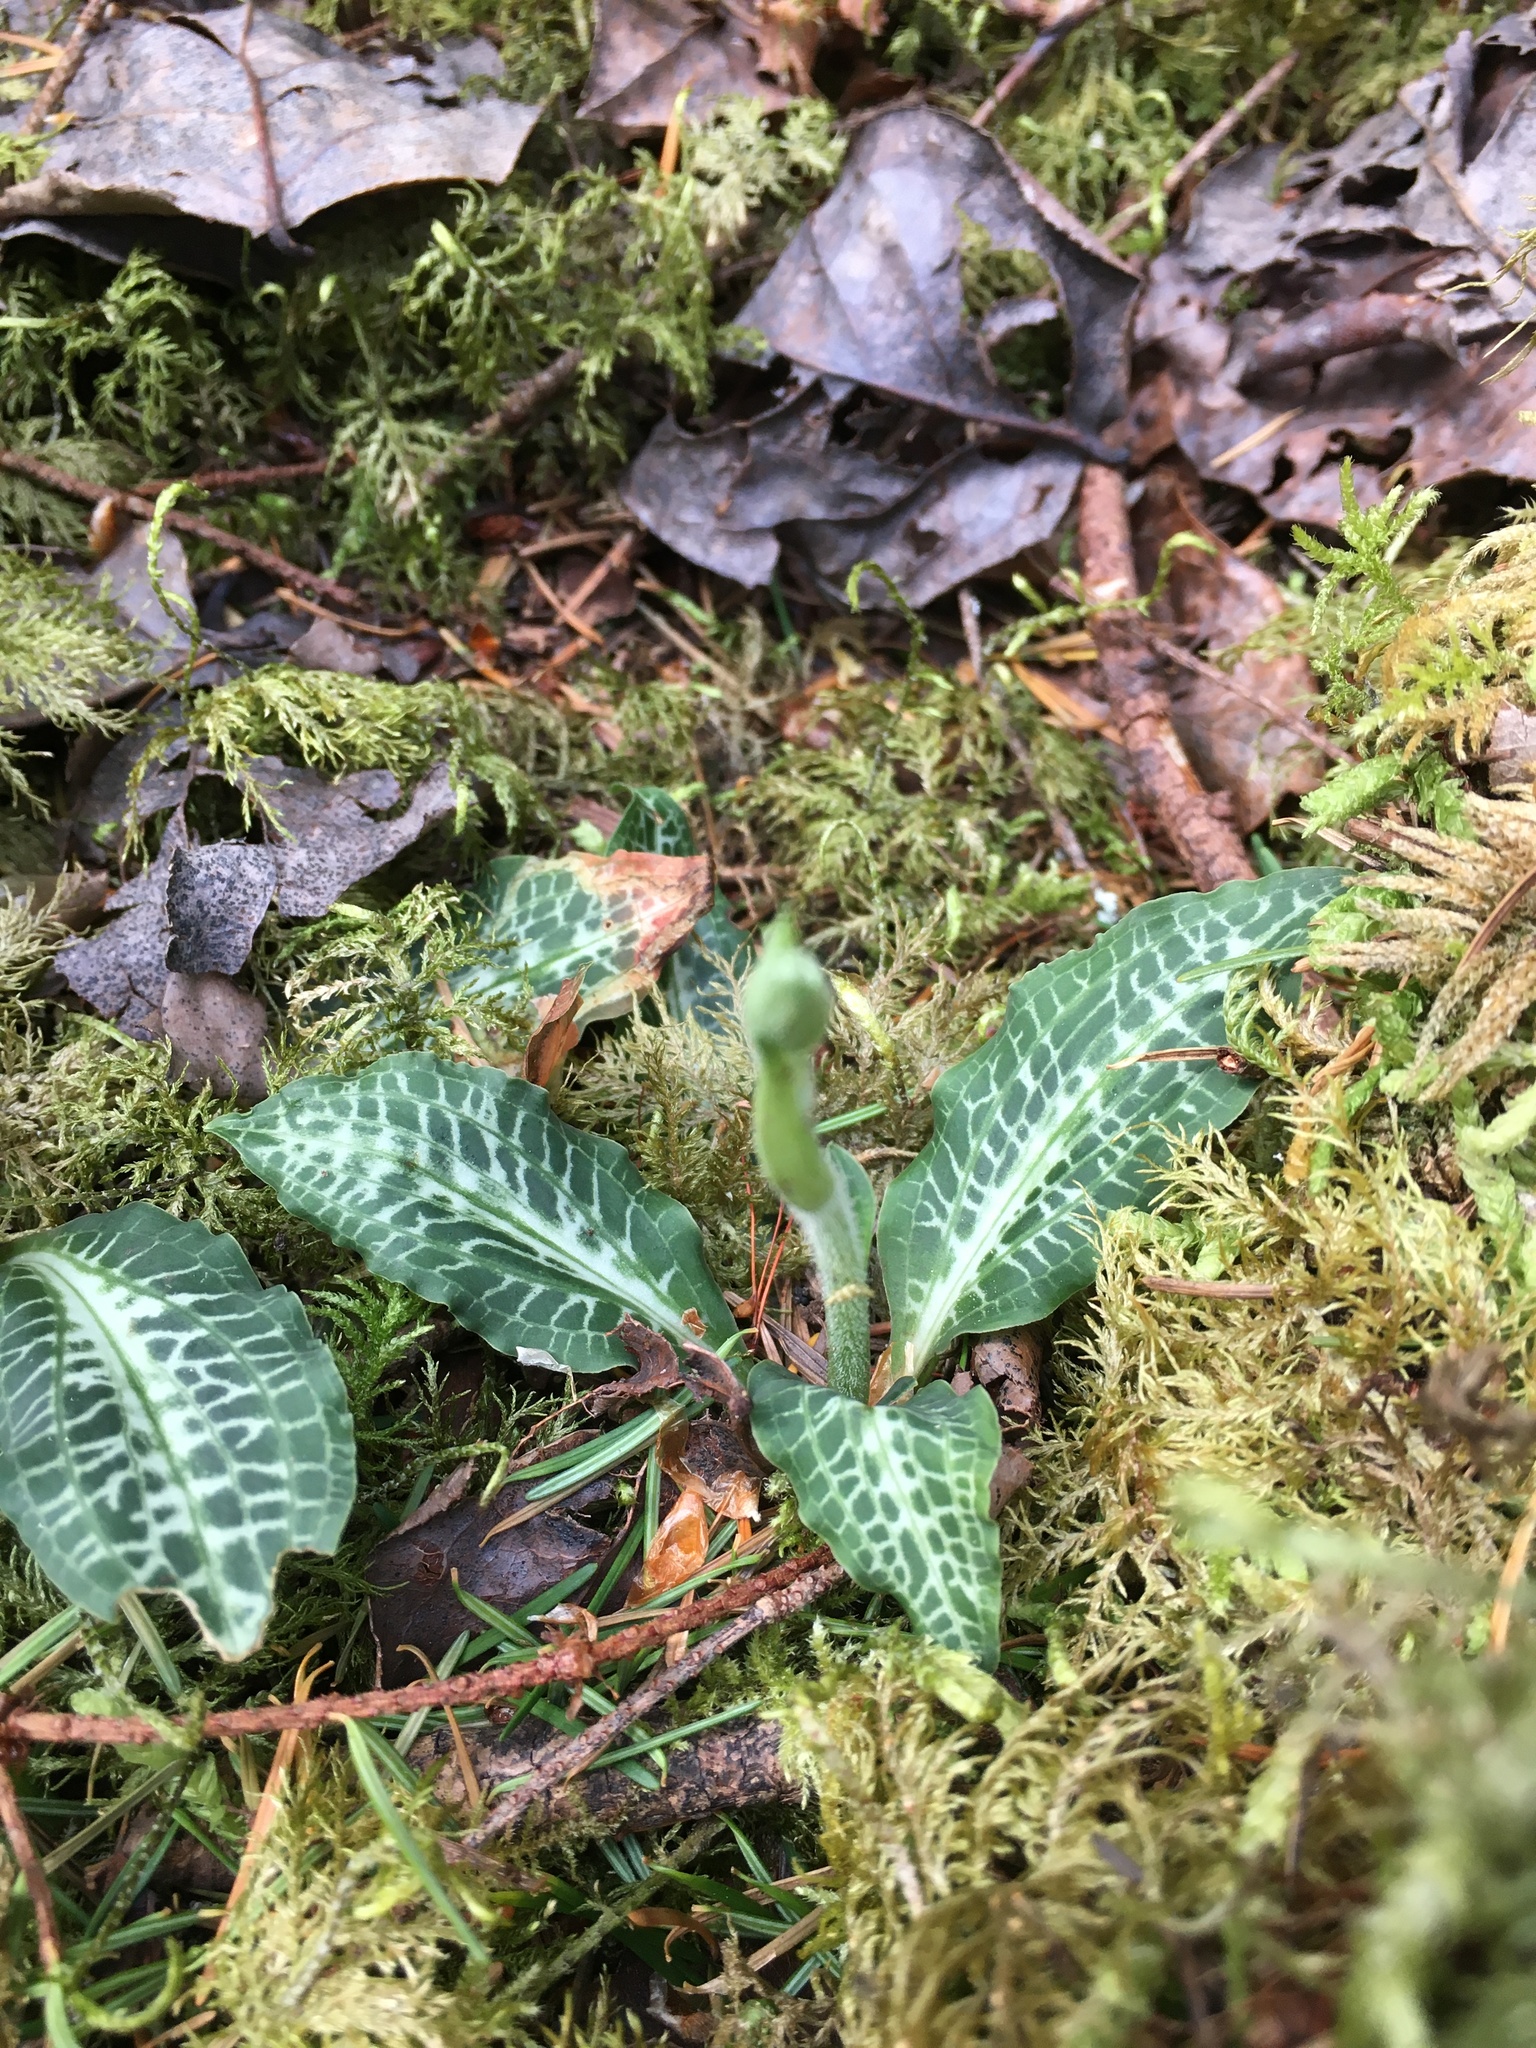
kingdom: Plantae
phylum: Tracheophyta
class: Liliopsida
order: Asparagales
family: Orchidaceae
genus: Goodyera
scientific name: Goodyera oblongifolia
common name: Giant rattlesnake-plantain
